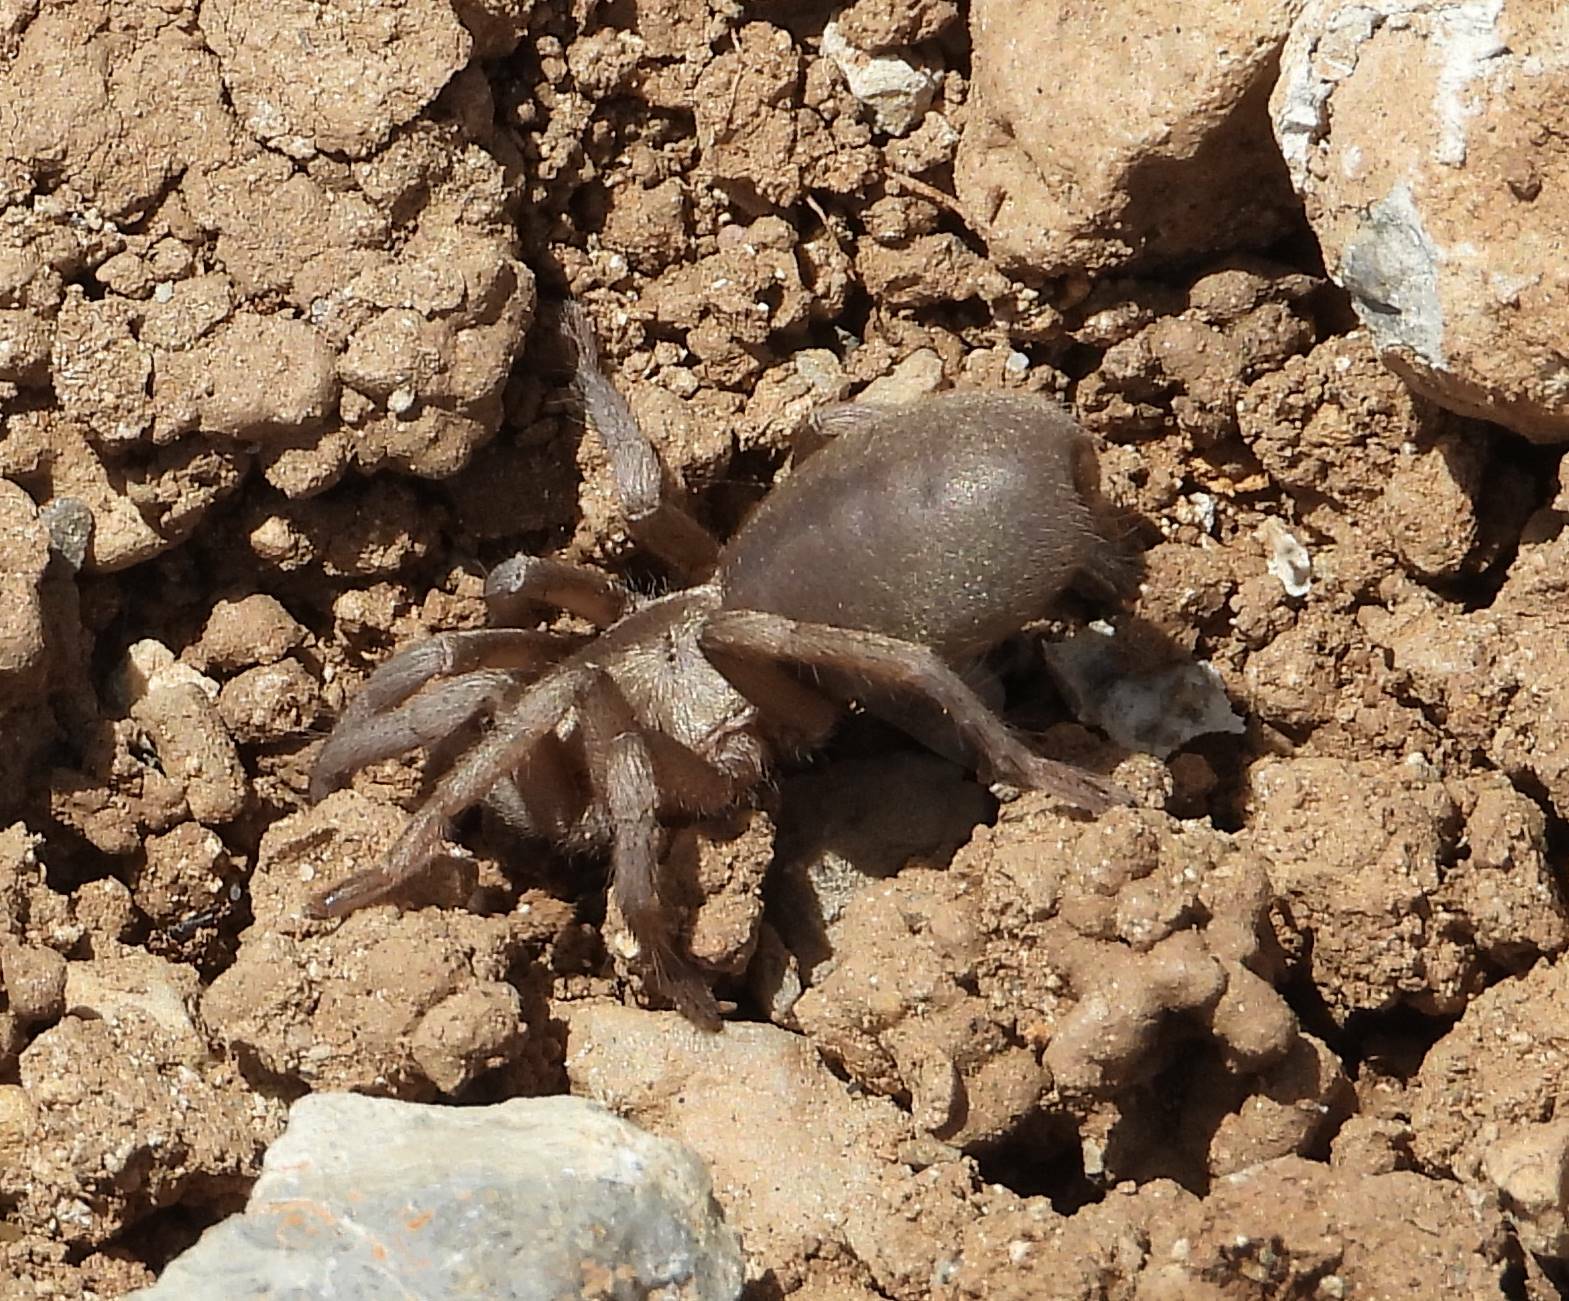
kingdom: Animalia
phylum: Arthropoda
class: Arachnida
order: Araneae
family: Theraphosidae
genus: Ischnocolus
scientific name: Ischnocolus valentinus
